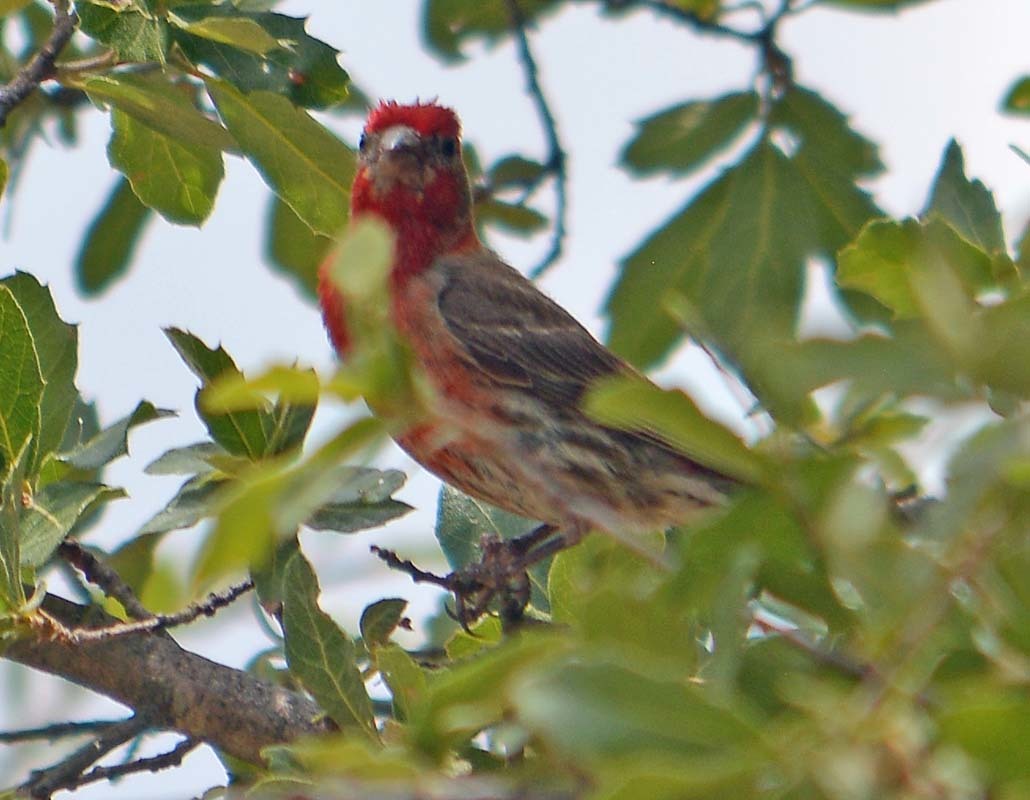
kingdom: Animalia
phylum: Chordata
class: Aves
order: Passeriformes
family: Fringillidae
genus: Haemorhous
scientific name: Haemorhous mexicanus
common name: House finch
